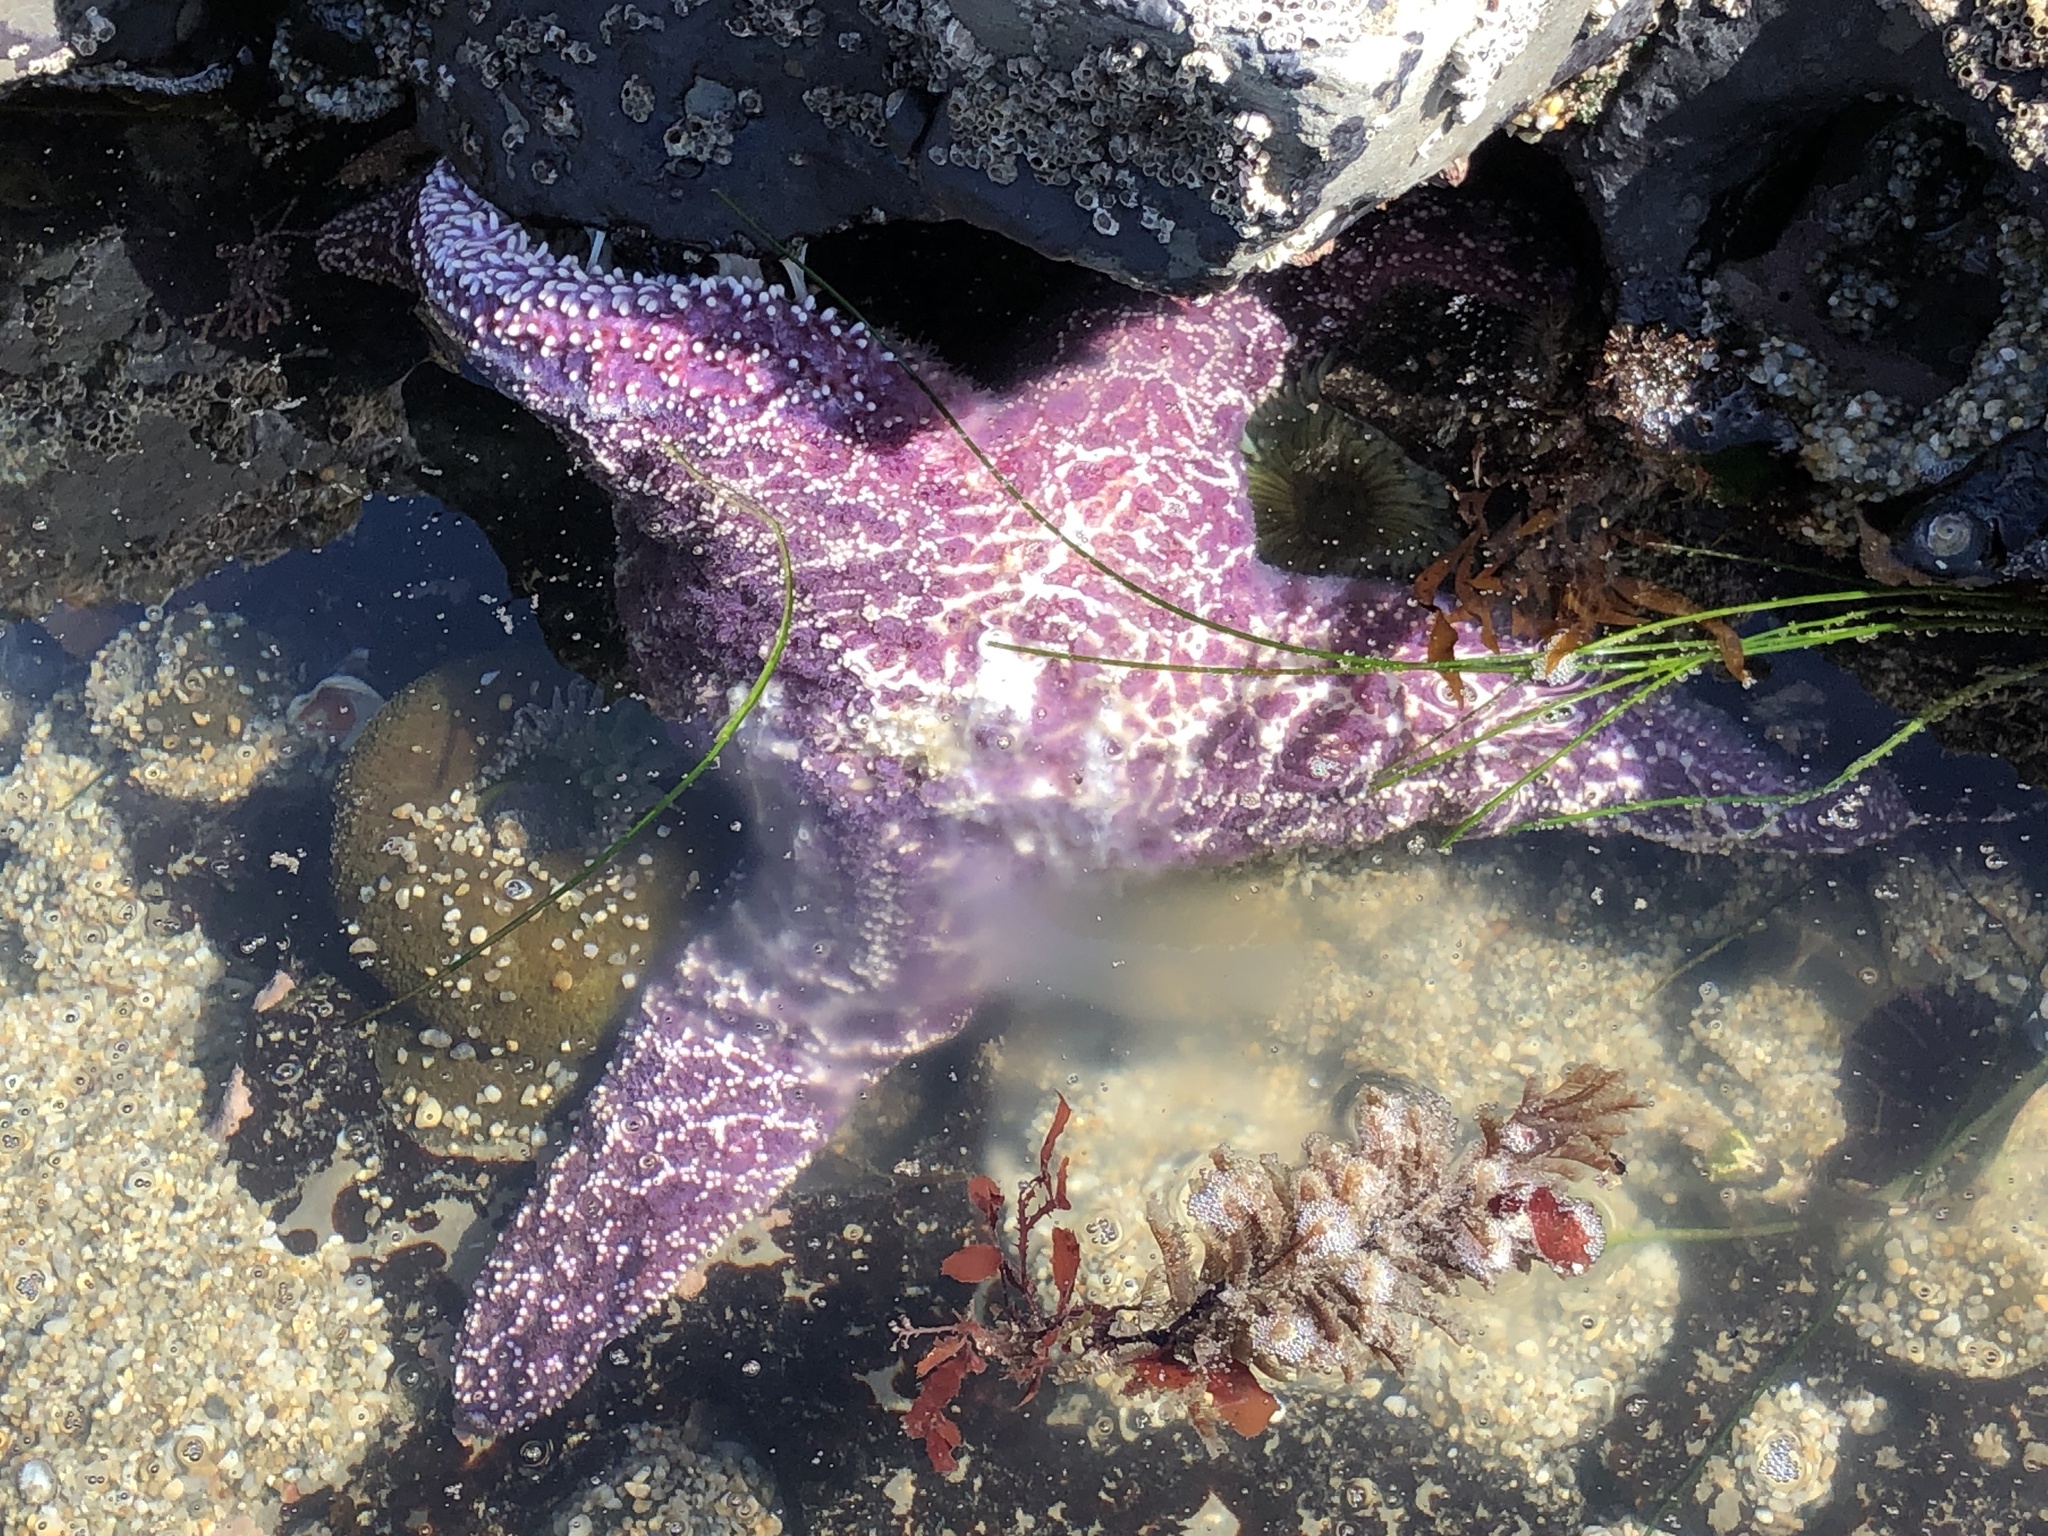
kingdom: Animalia
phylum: Echinodermata
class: Asteroidea
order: Forcipulatida
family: Asteriidae
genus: Pisaster
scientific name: Pisaster ochraceus
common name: Ochre stars
